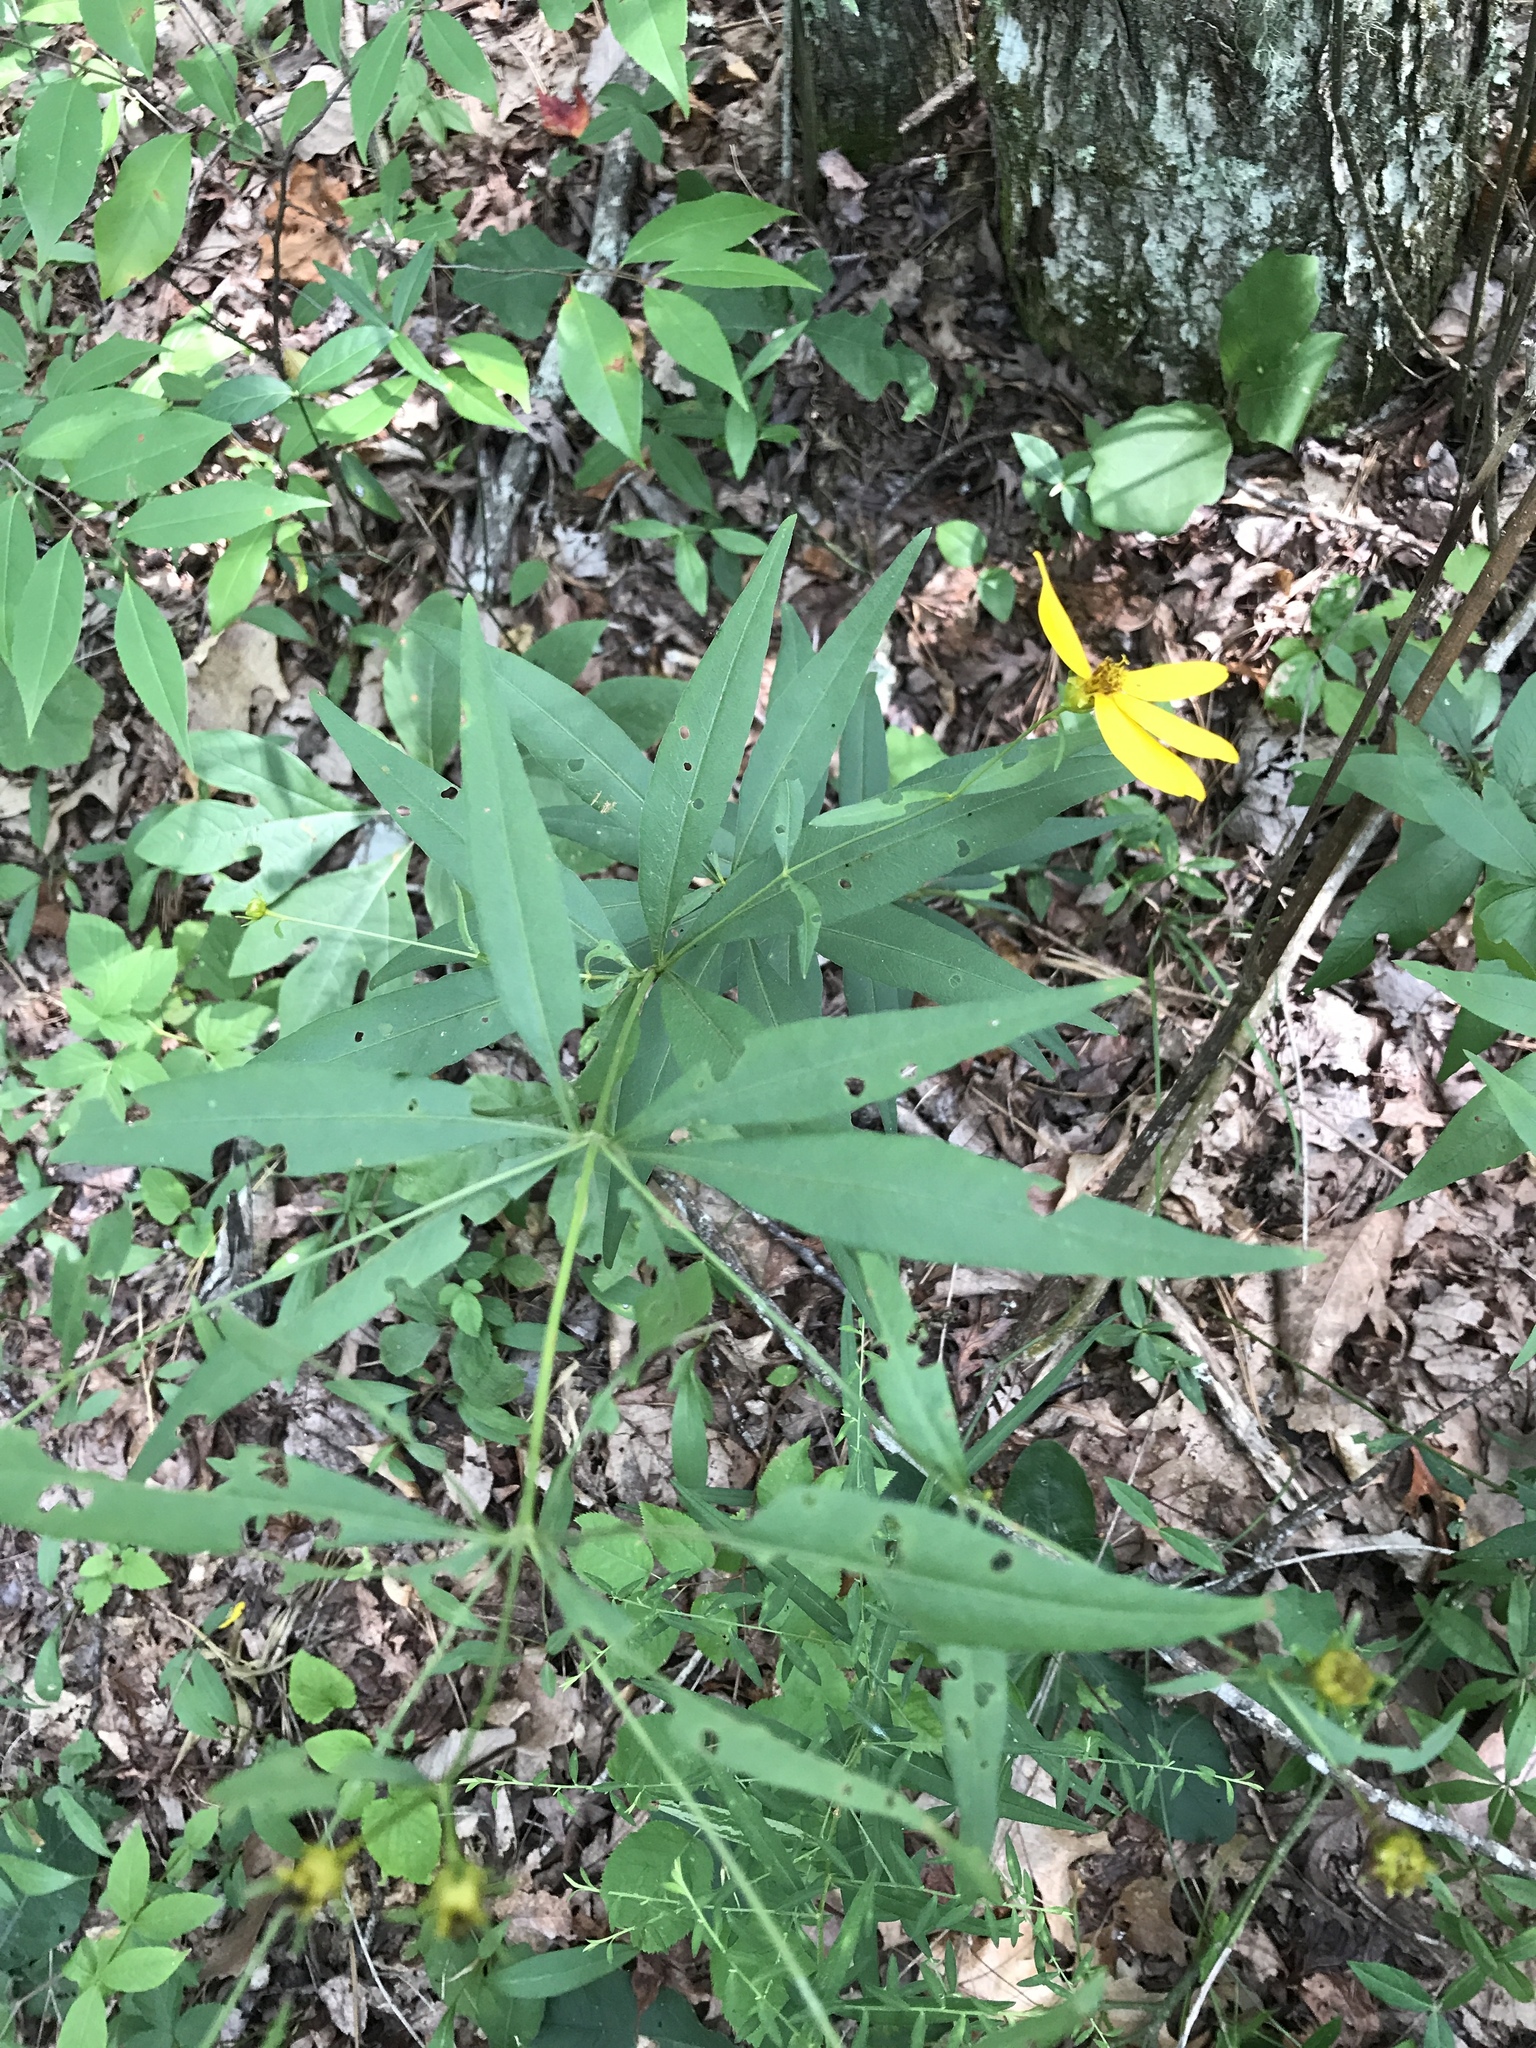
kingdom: Plantae
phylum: Tracheophyta
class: Magnoliopsida
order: Asterales
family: Asteraceae
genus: Coreopsis
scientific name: Coreopsis major
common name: Forest tickseed
